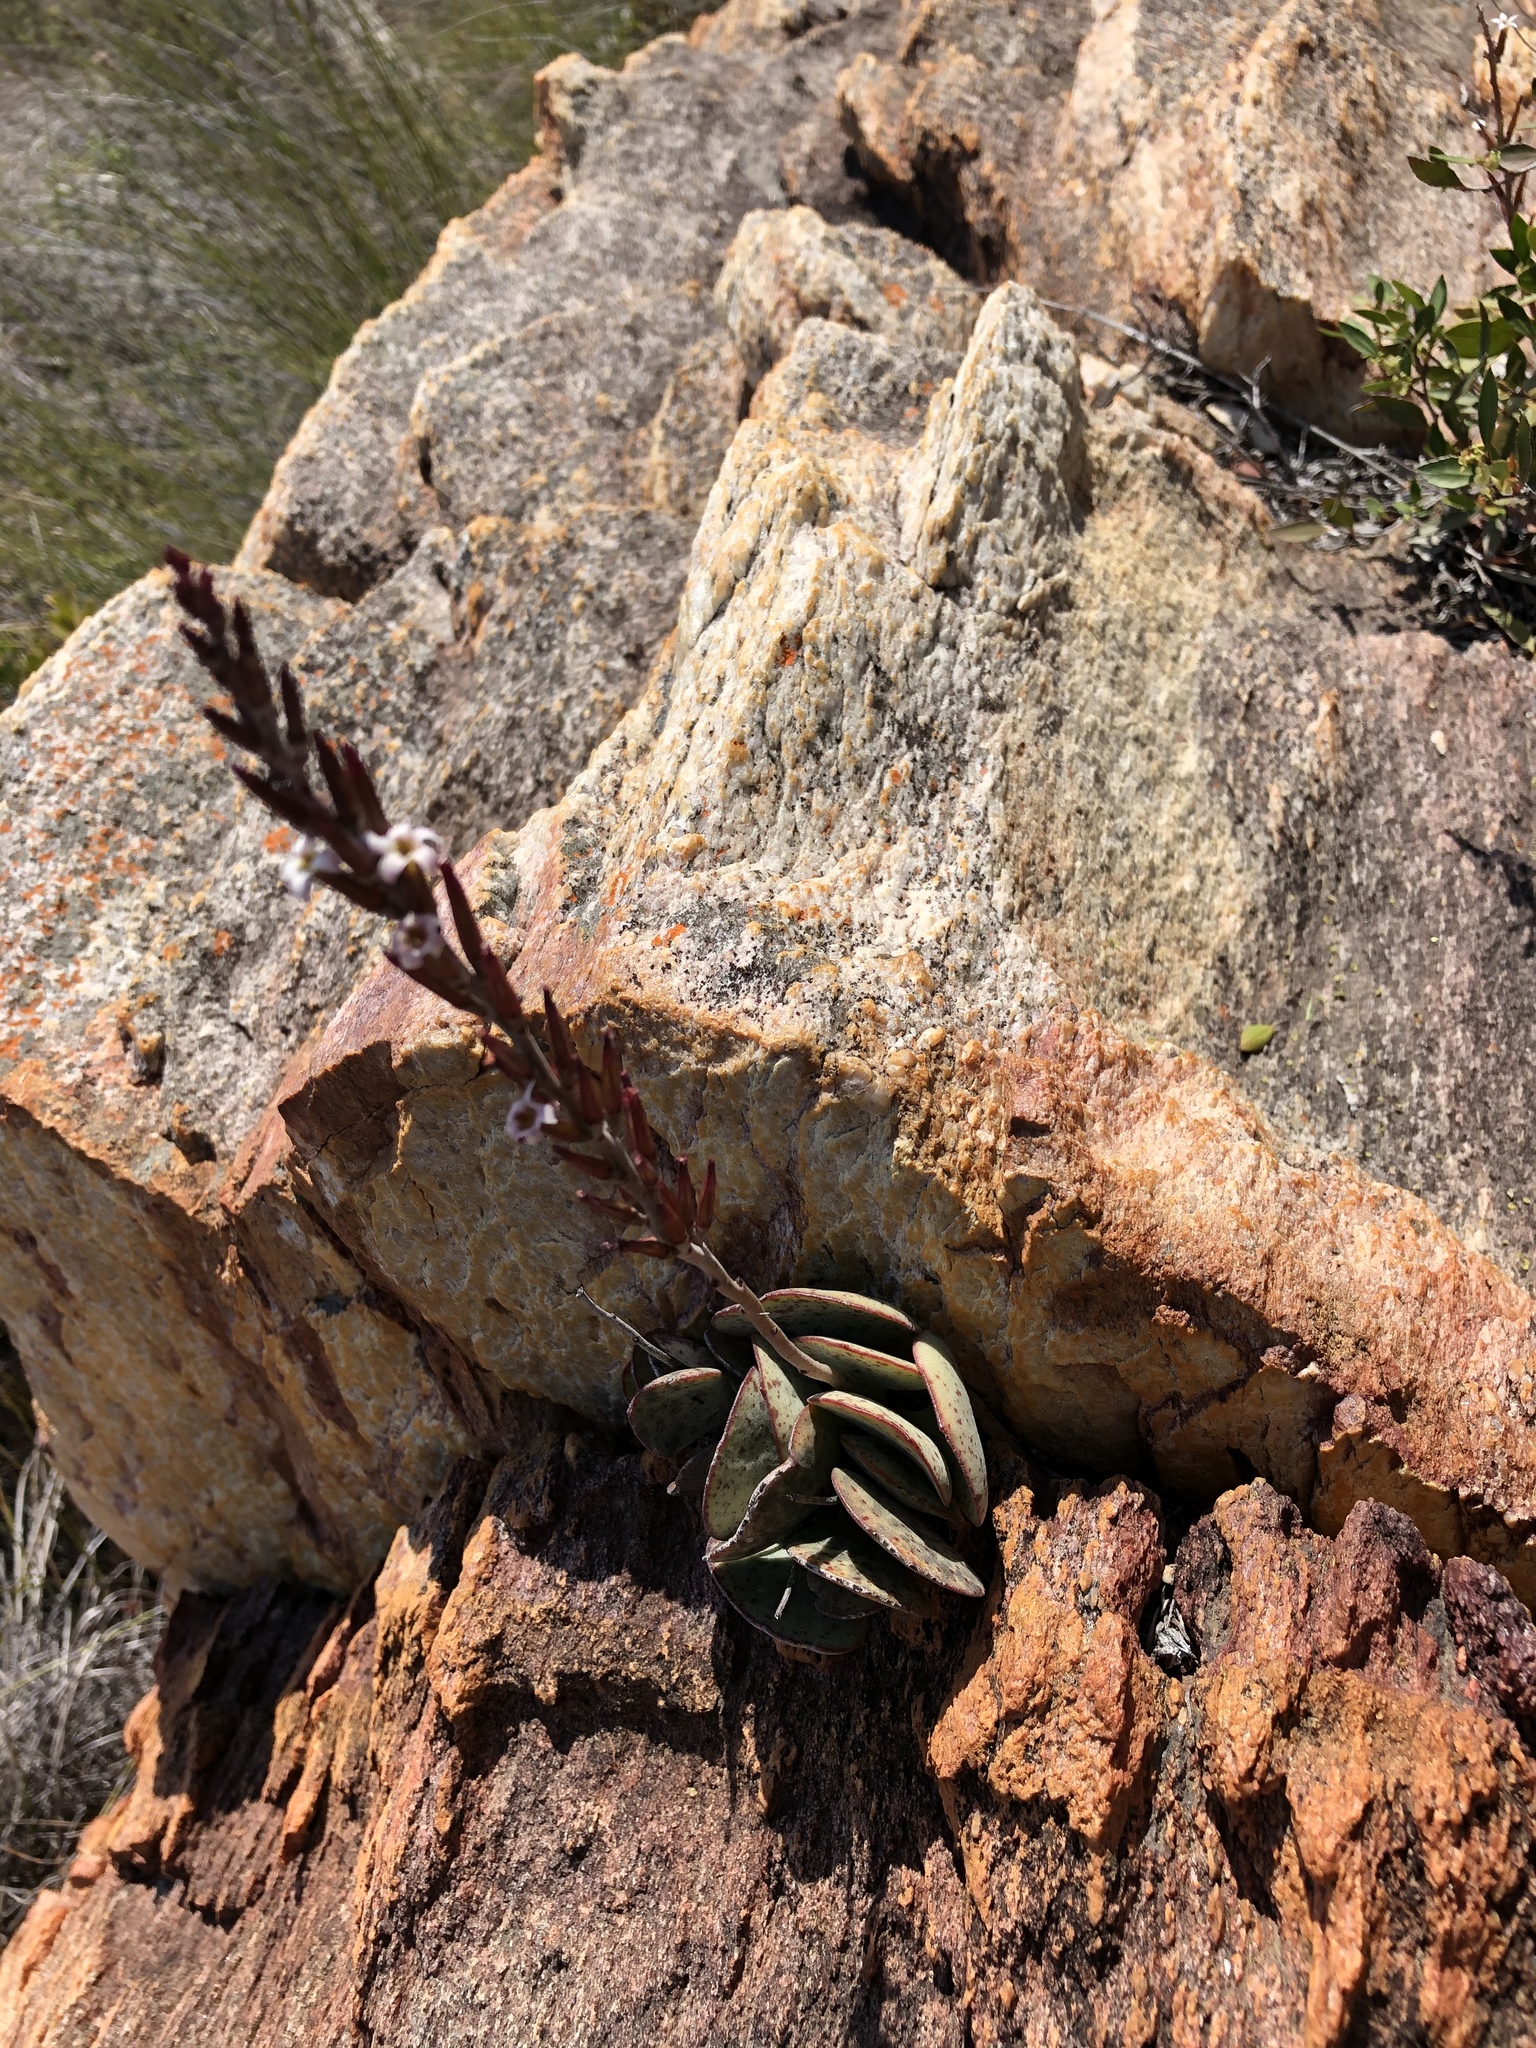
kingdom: Plantae
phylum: Tracheophyta
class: Magnoliopsida
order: Saxifragales
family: Crassulaceae
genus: Adromischus
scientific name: Adromischus inamoenus
